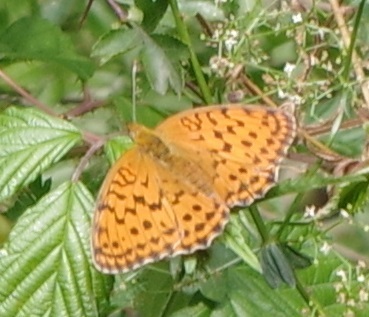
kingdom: Animalia
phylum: Arthropoda
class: Insecta
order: Lepidoptera
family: Nymphalidae
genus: Brenthis
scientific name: Brenthis daphne
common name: Marbled fritillary
